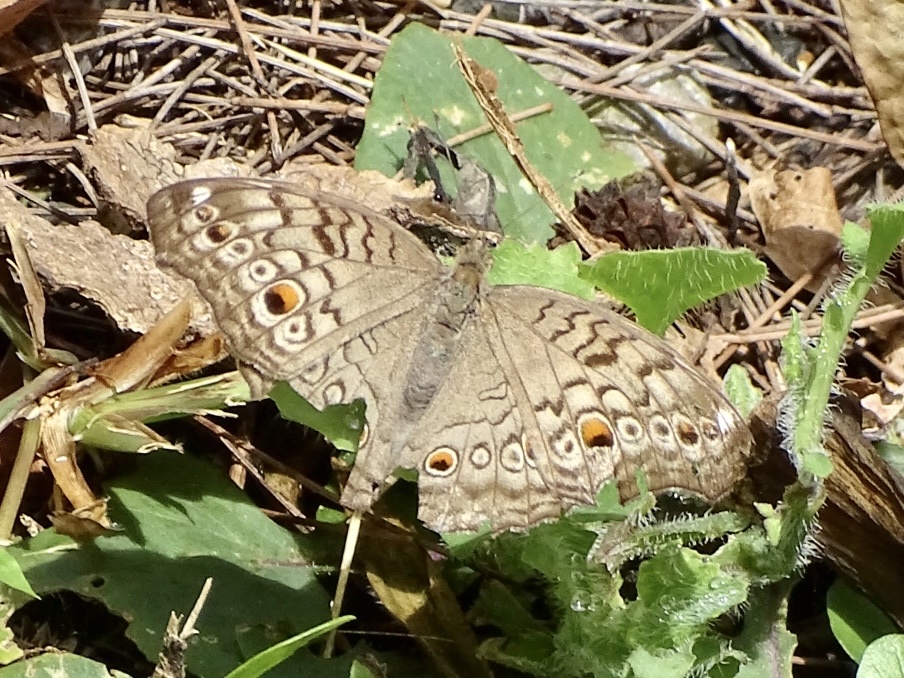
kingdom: Animalia
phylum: Arthropoda
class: Insecta
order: Lepidoptera
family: Nymphalidae
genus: Junonia
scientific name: Junonia atlites
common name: Grey pansy
